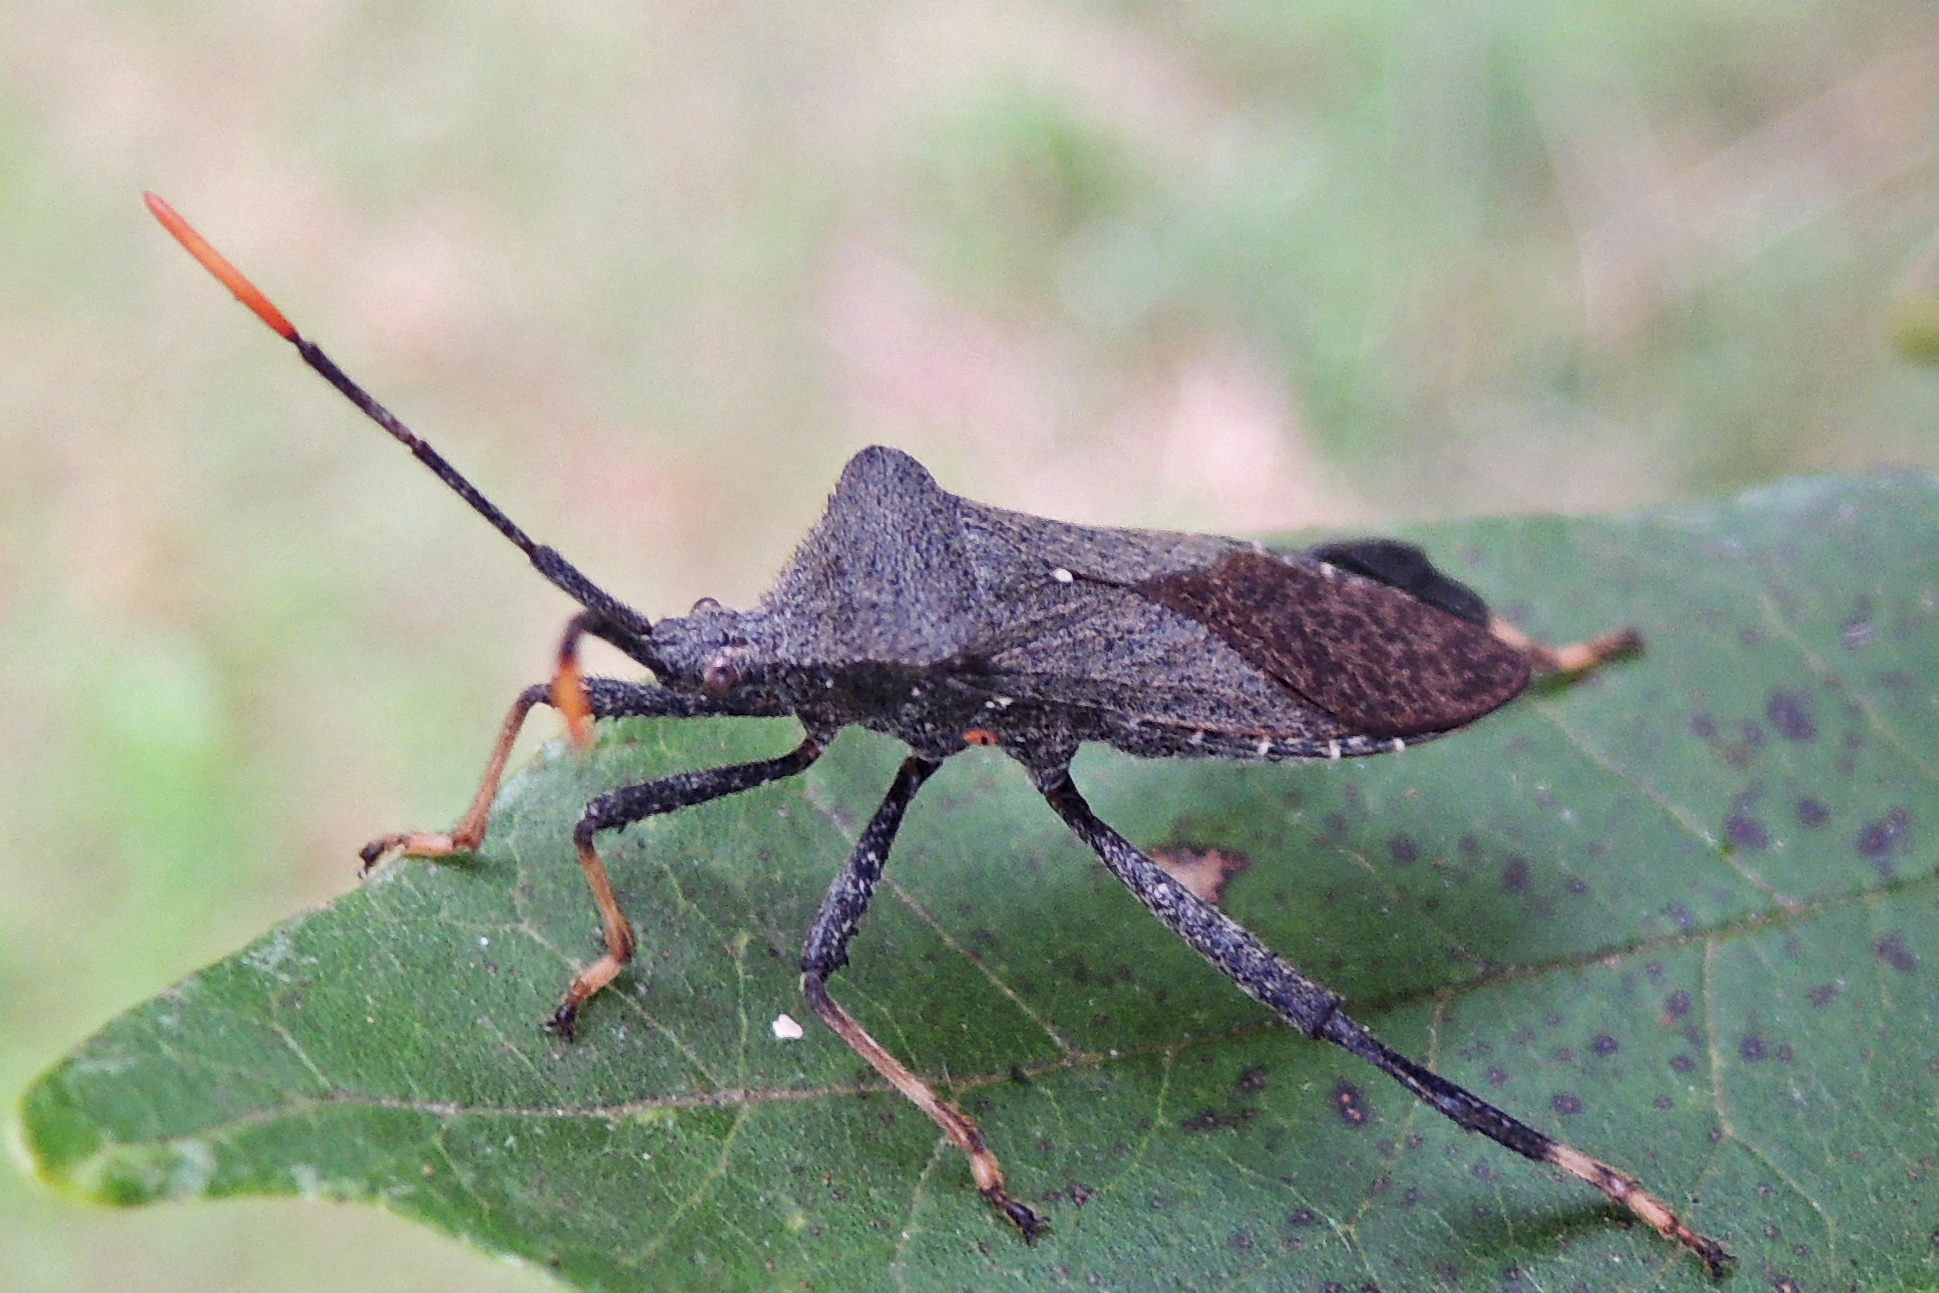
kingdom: Animalia
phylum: Arthropoda
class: Insecta
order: Hemiptera
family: Coreidae
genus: Acanthocephala
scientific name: Acanthocephala terminalis
